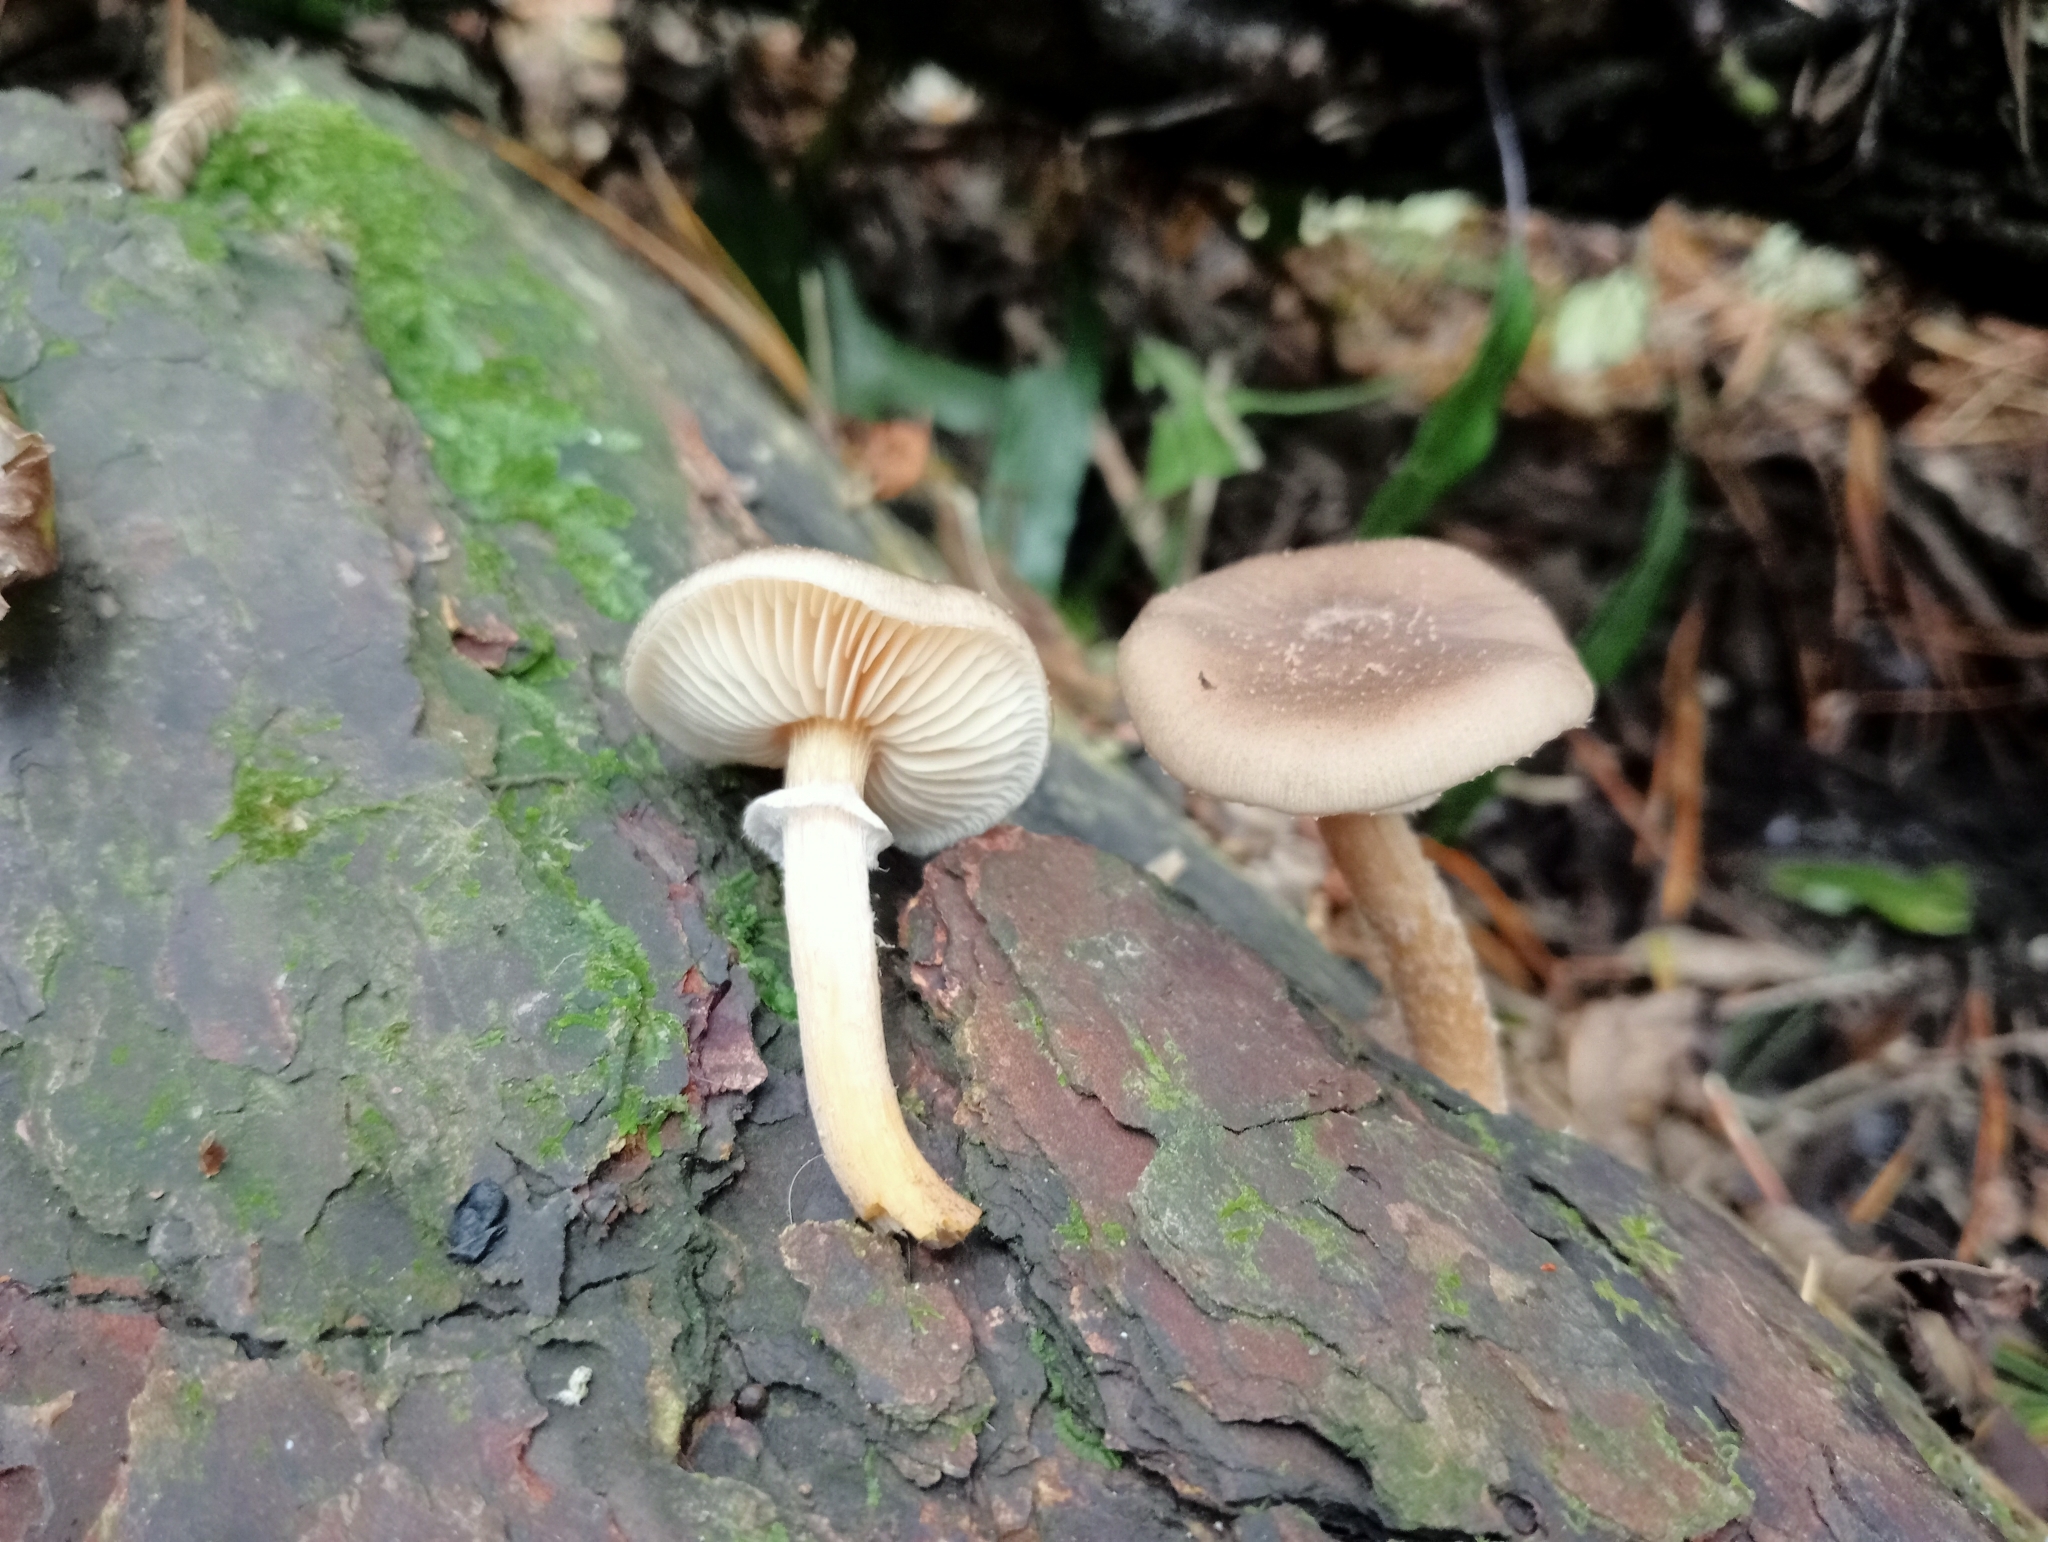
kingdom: Fungi
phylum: Basidiomycota
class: Agaricomycetes
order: Agaricales
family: Physalacriaceae
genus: Armillaria
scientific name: Armillaria novae-zelandiae
